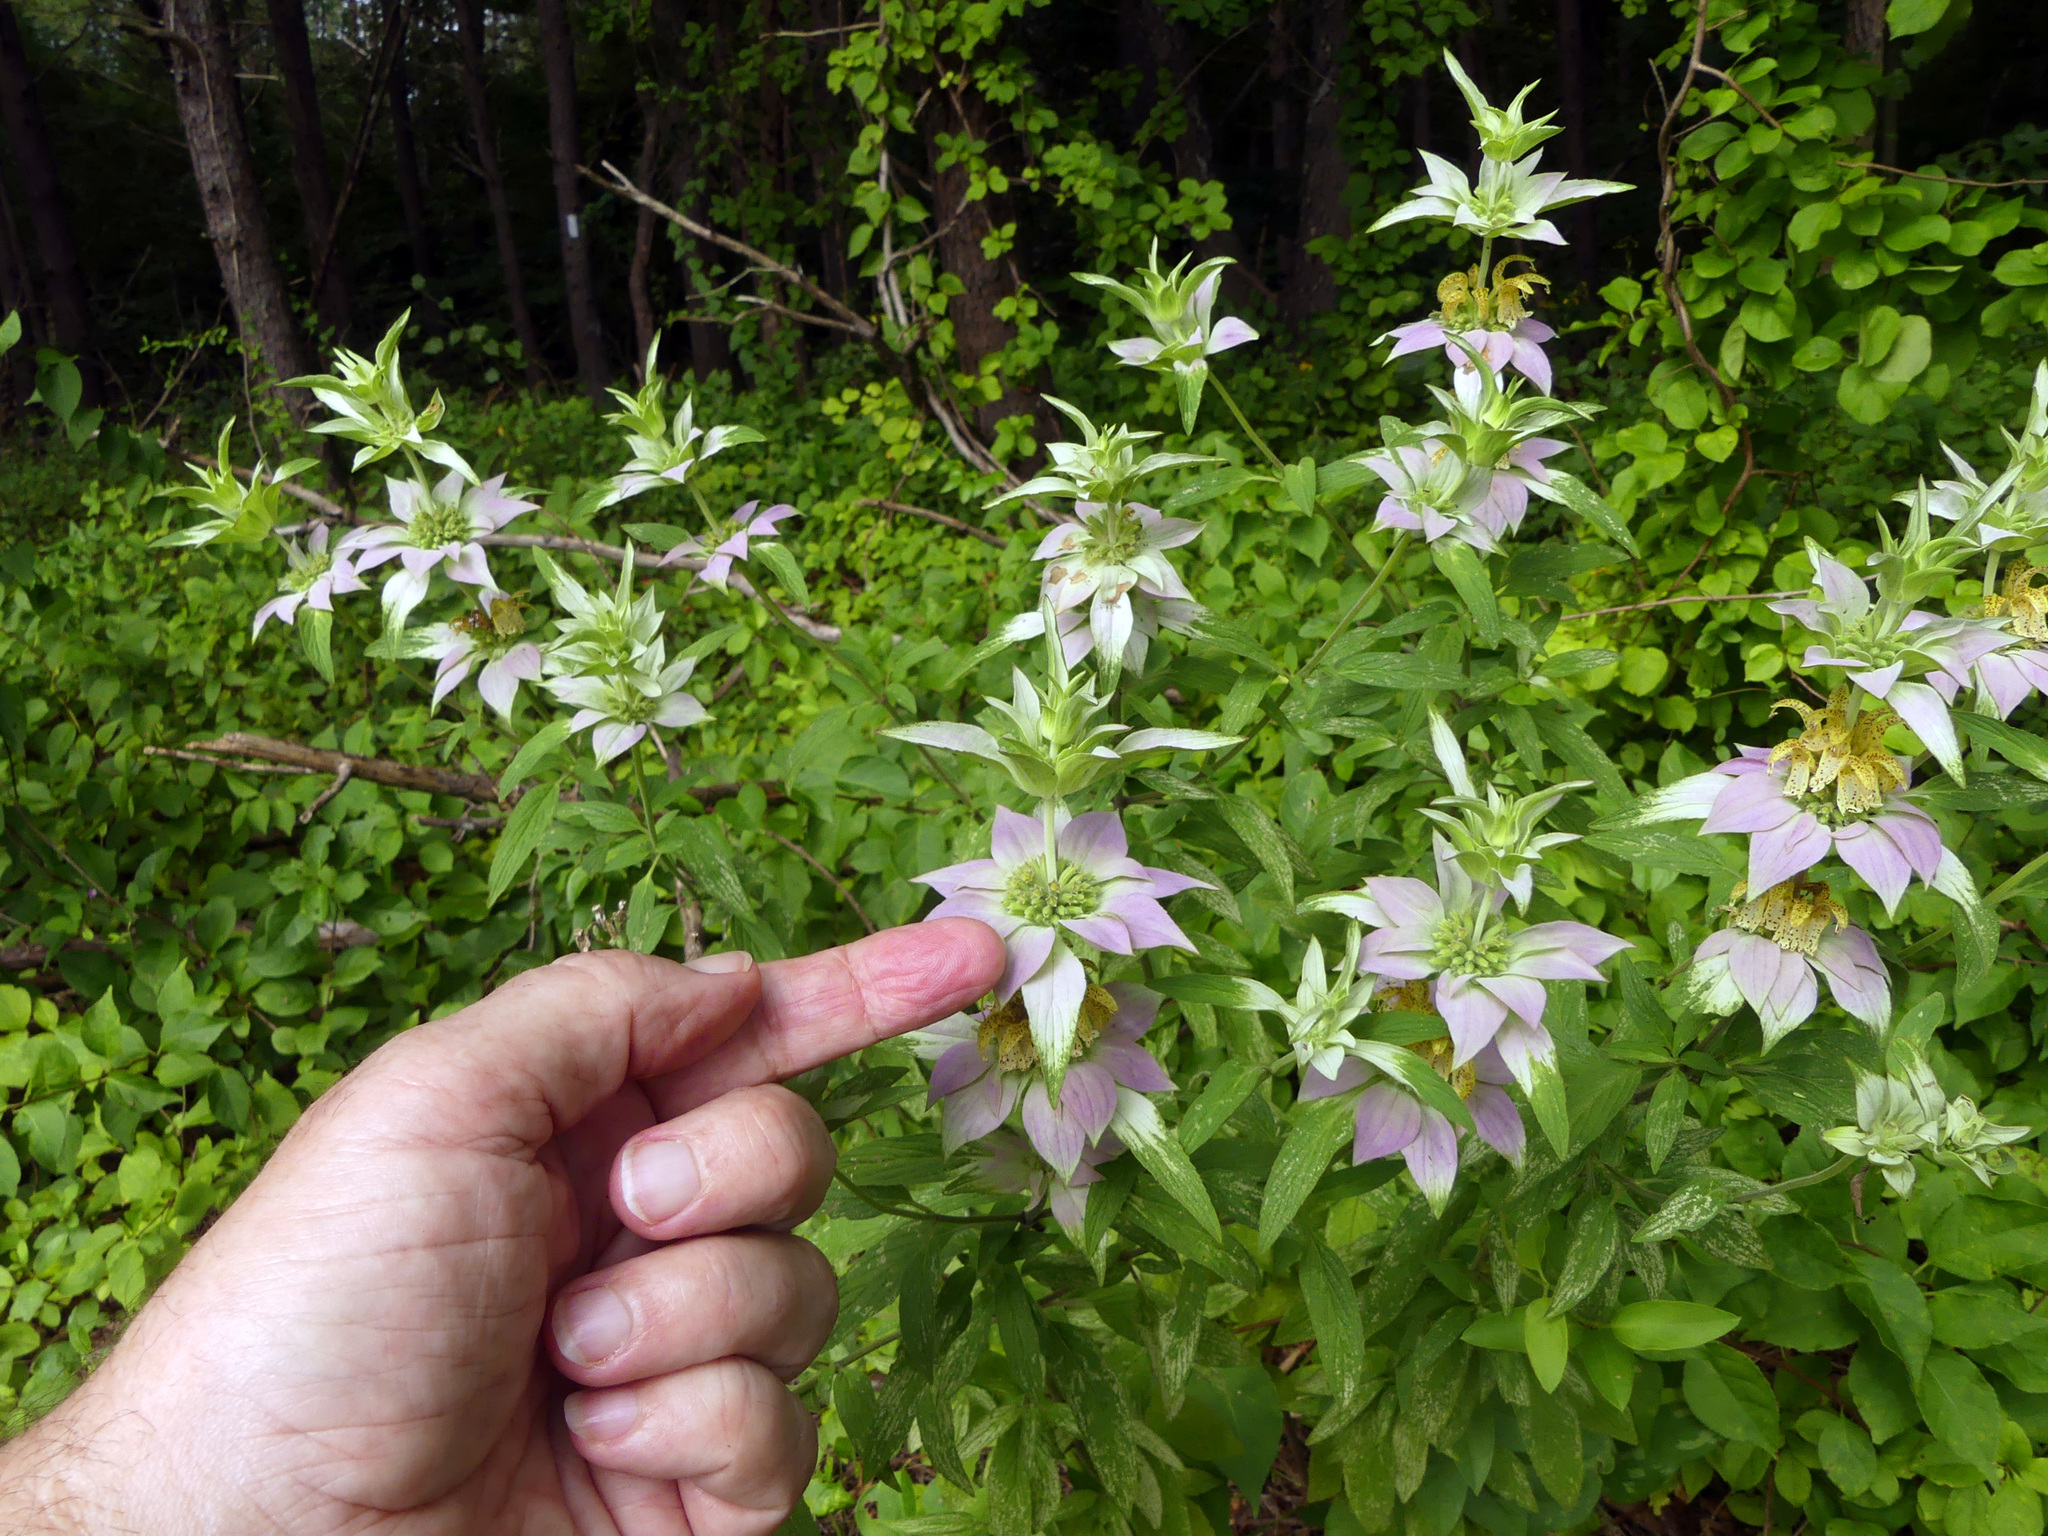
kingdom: Plantae
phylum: Tracheophyta
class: Magnoliopsida
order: Lamiales
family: Lamiaceae
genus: Monarda
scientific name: Monarda punctata
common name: Dotted monarda
